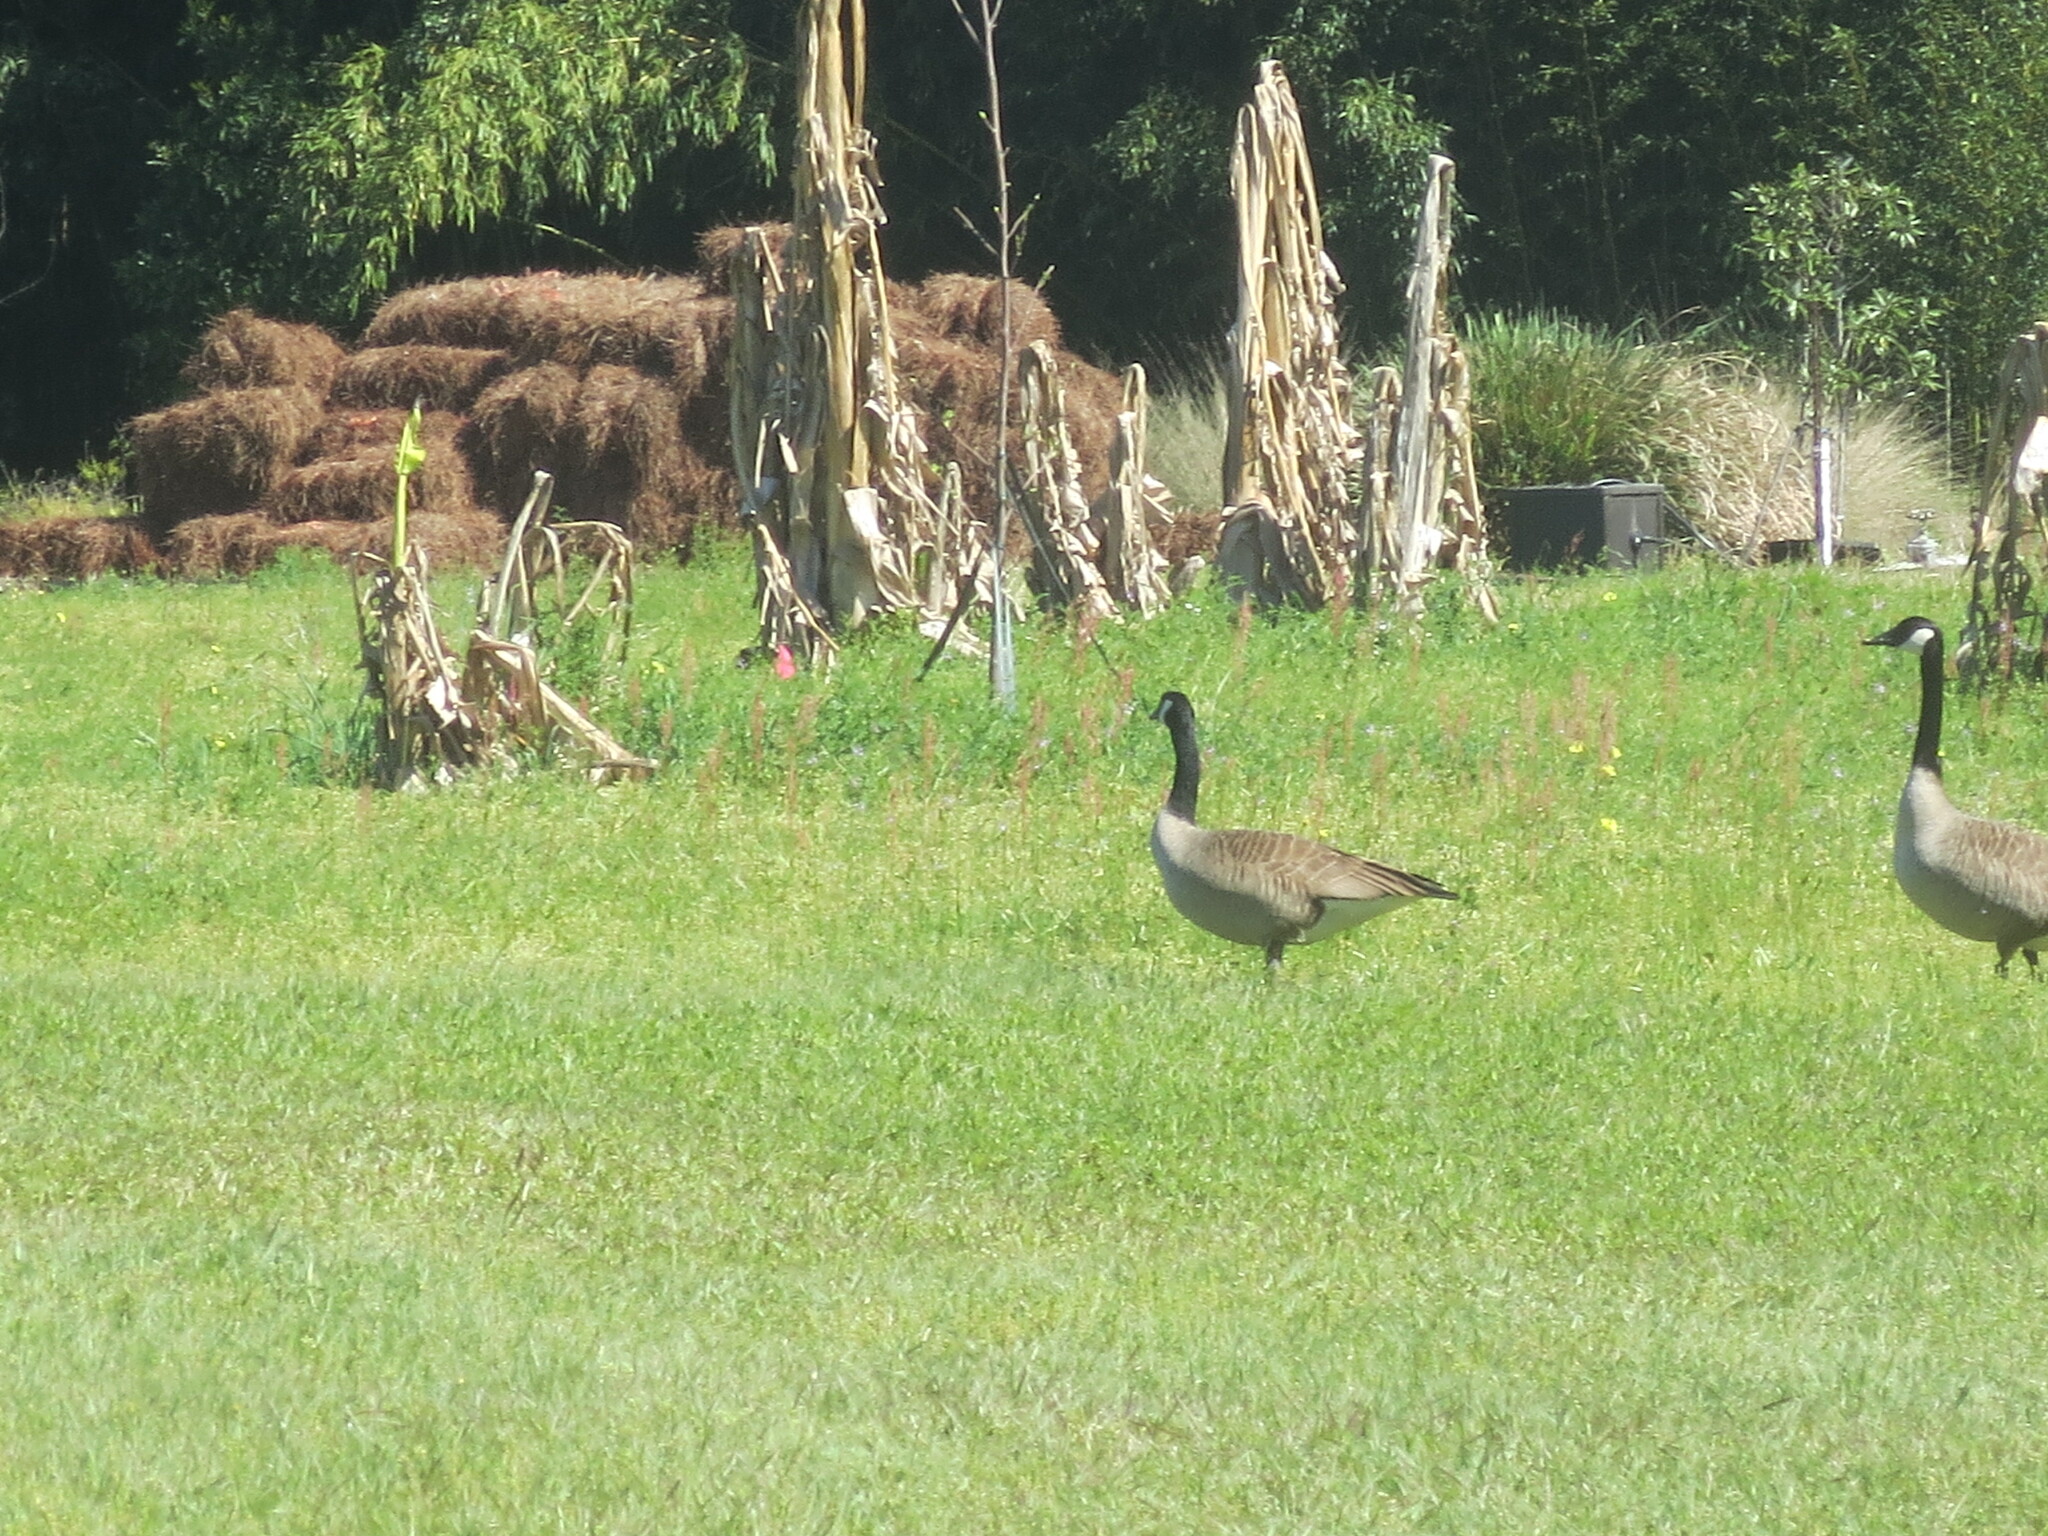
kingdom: Animalia
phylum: Chordata
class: Aves
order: Anseriformes
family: Anatidae
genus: Branta
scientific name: Branta canadensis
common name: Canada goose
